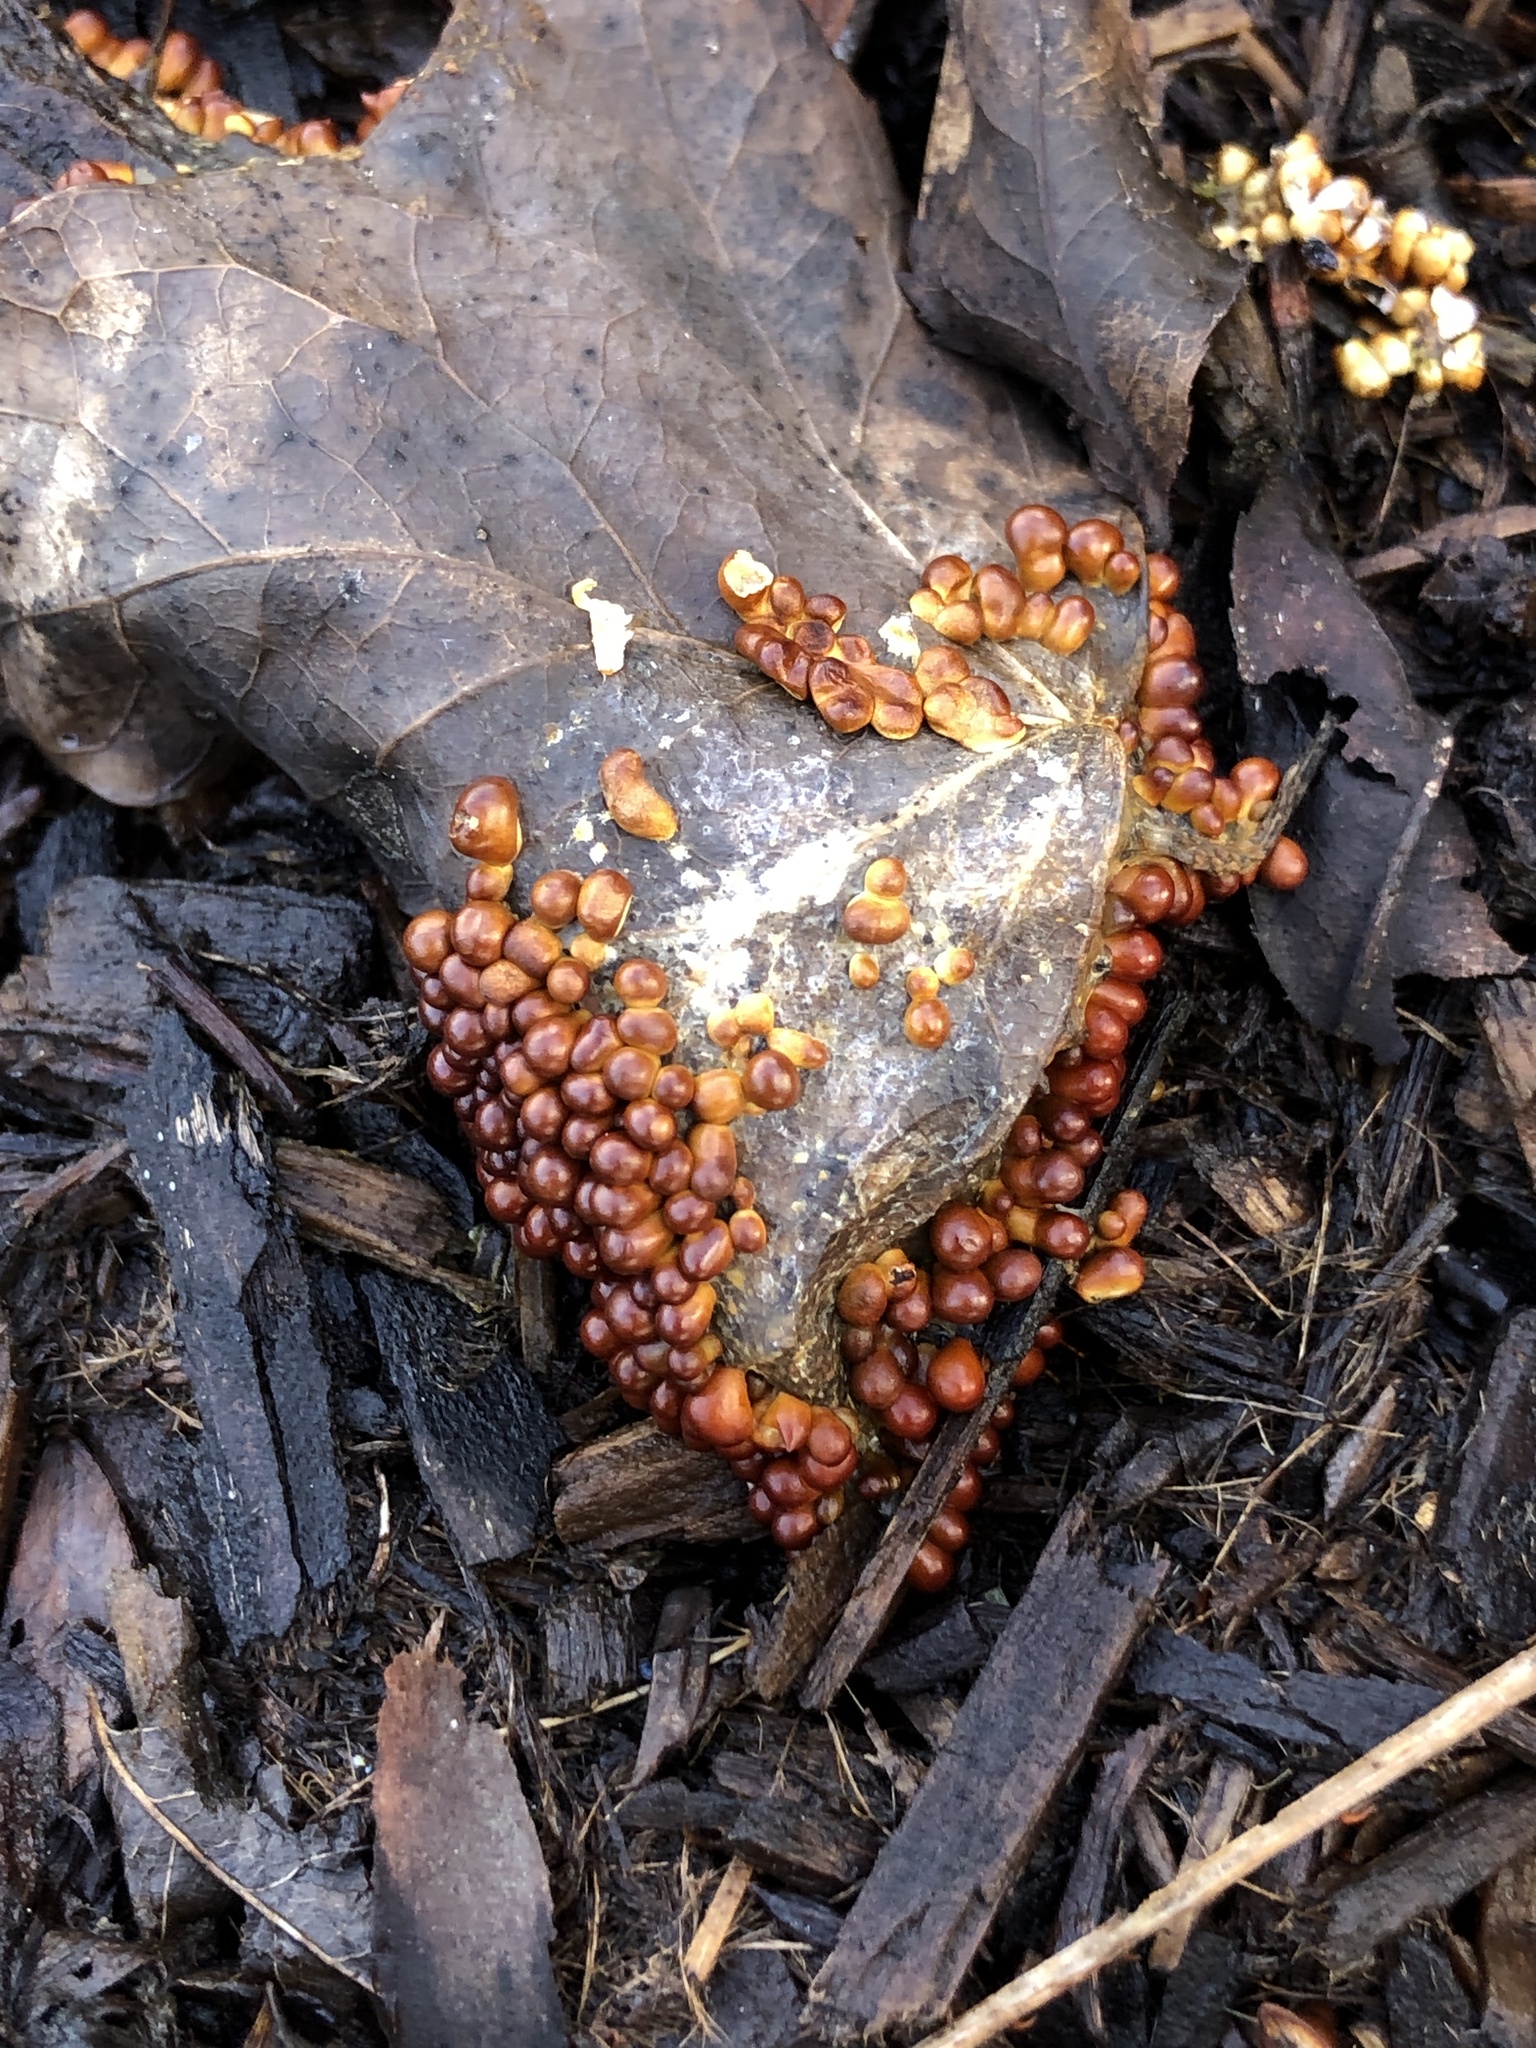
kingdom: Protozoa
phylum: Mycetozoa
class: Myxomycetes
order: Physarales
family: Physaraceae
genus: Leocarpus
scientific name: Leocarpus fragilis
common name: Insect-egg slime
